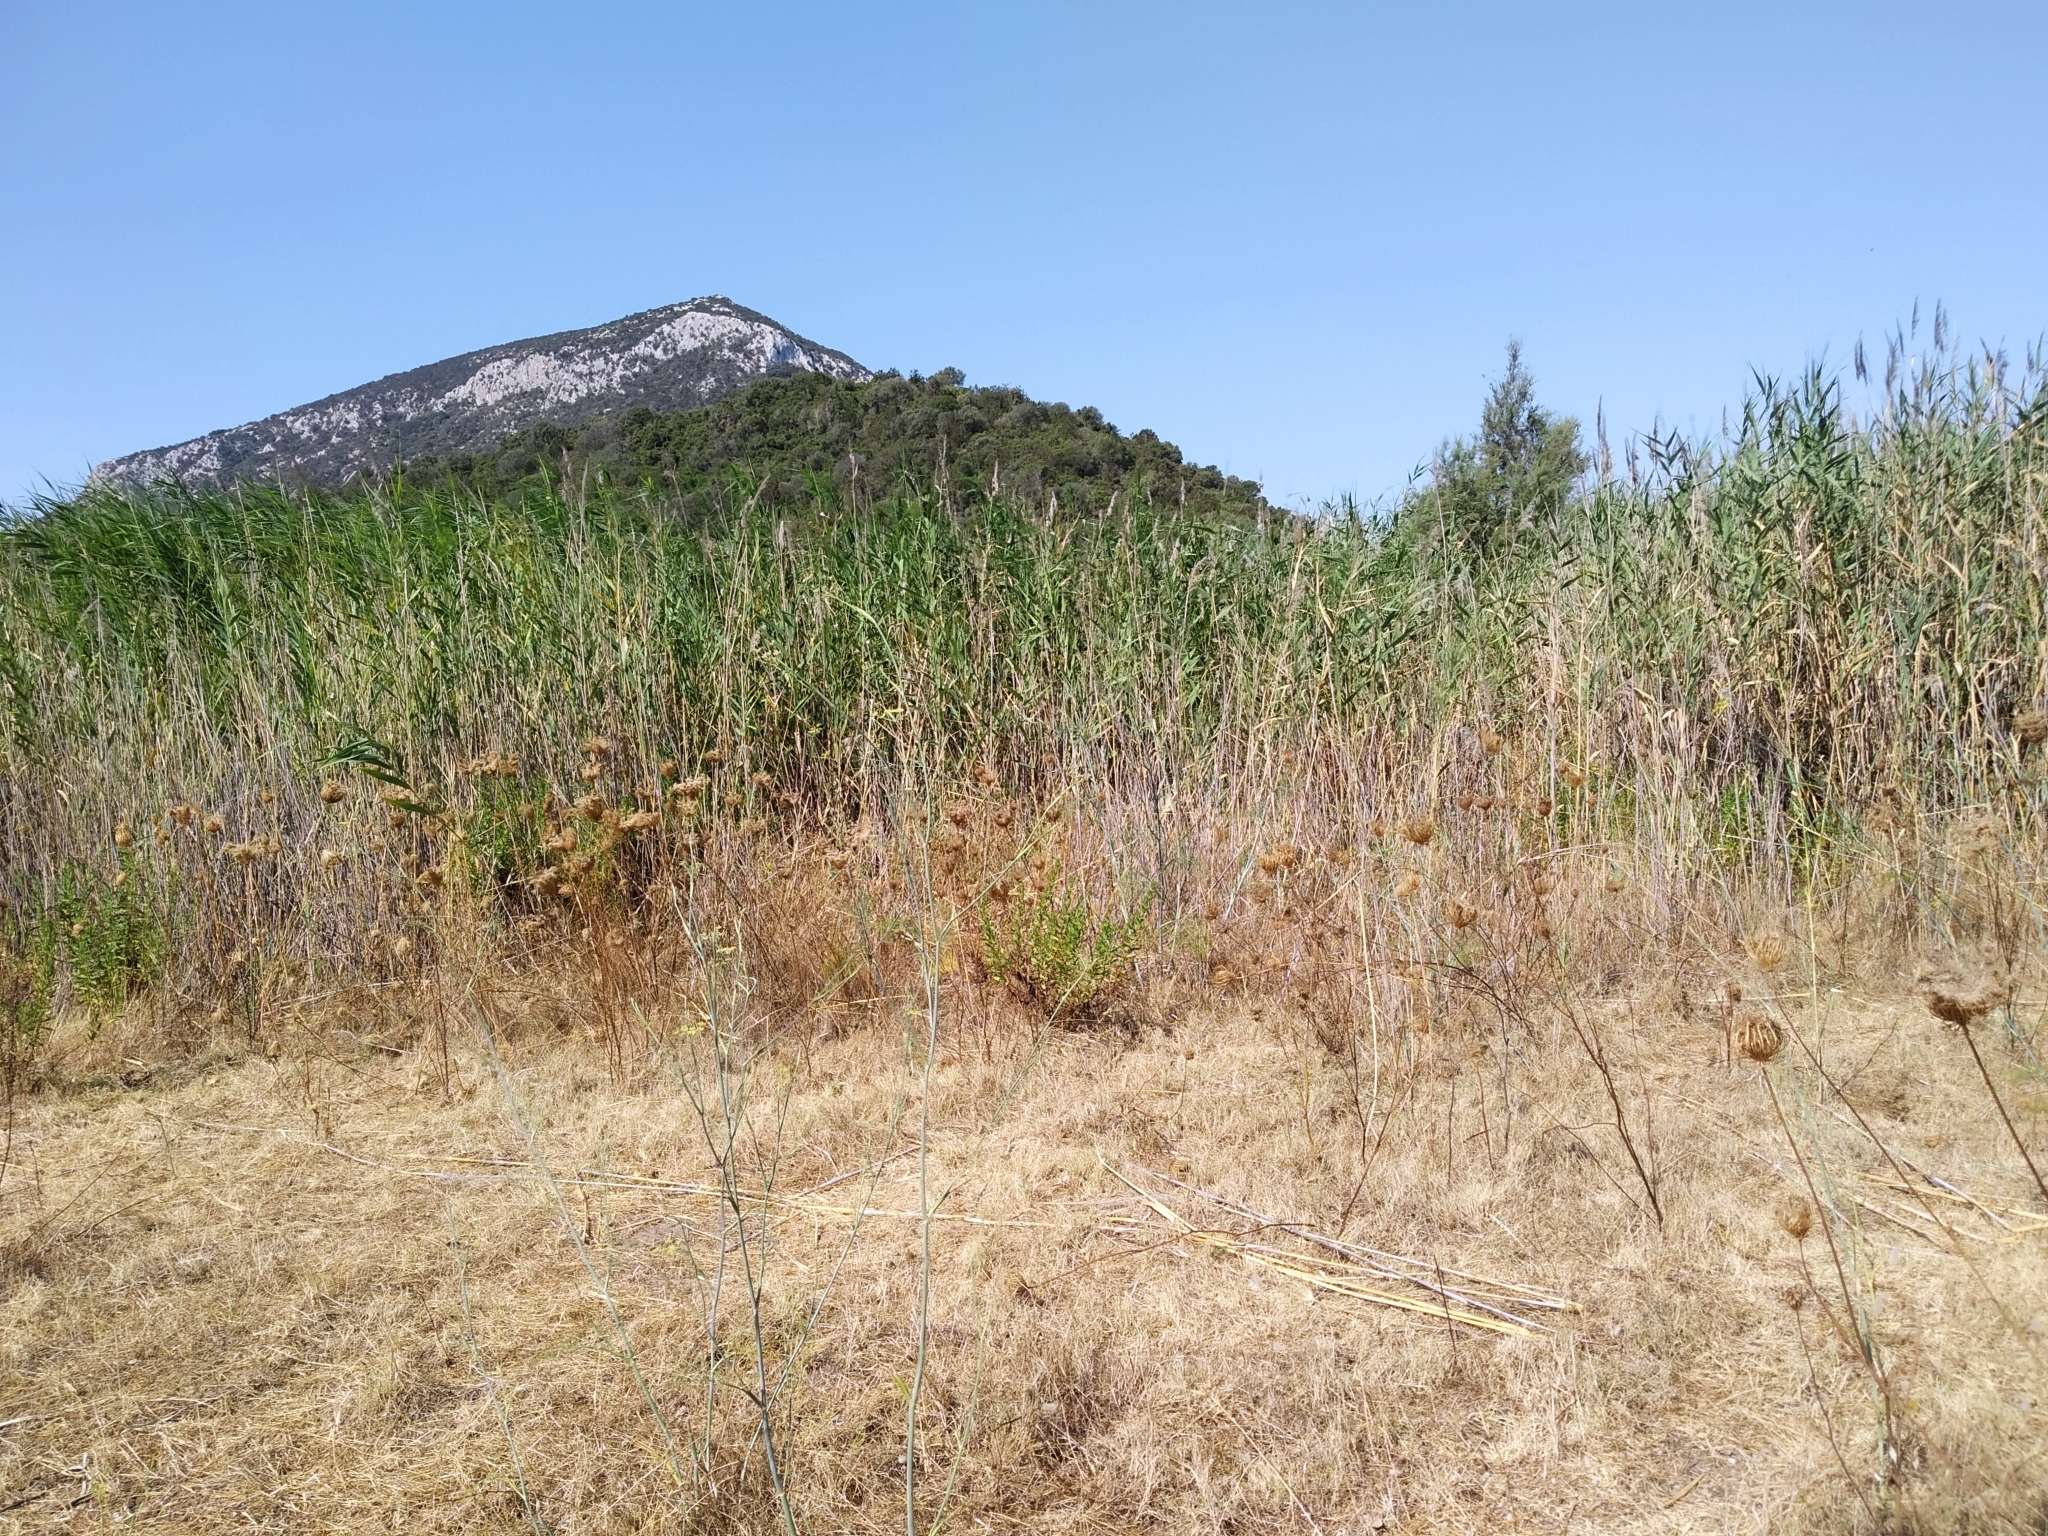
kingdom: Plantae
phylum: Tracheophyta
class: Liliopsida
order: Poales
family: Poaceae
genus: Arundo
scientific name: Arundo donax
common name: Giant reed
